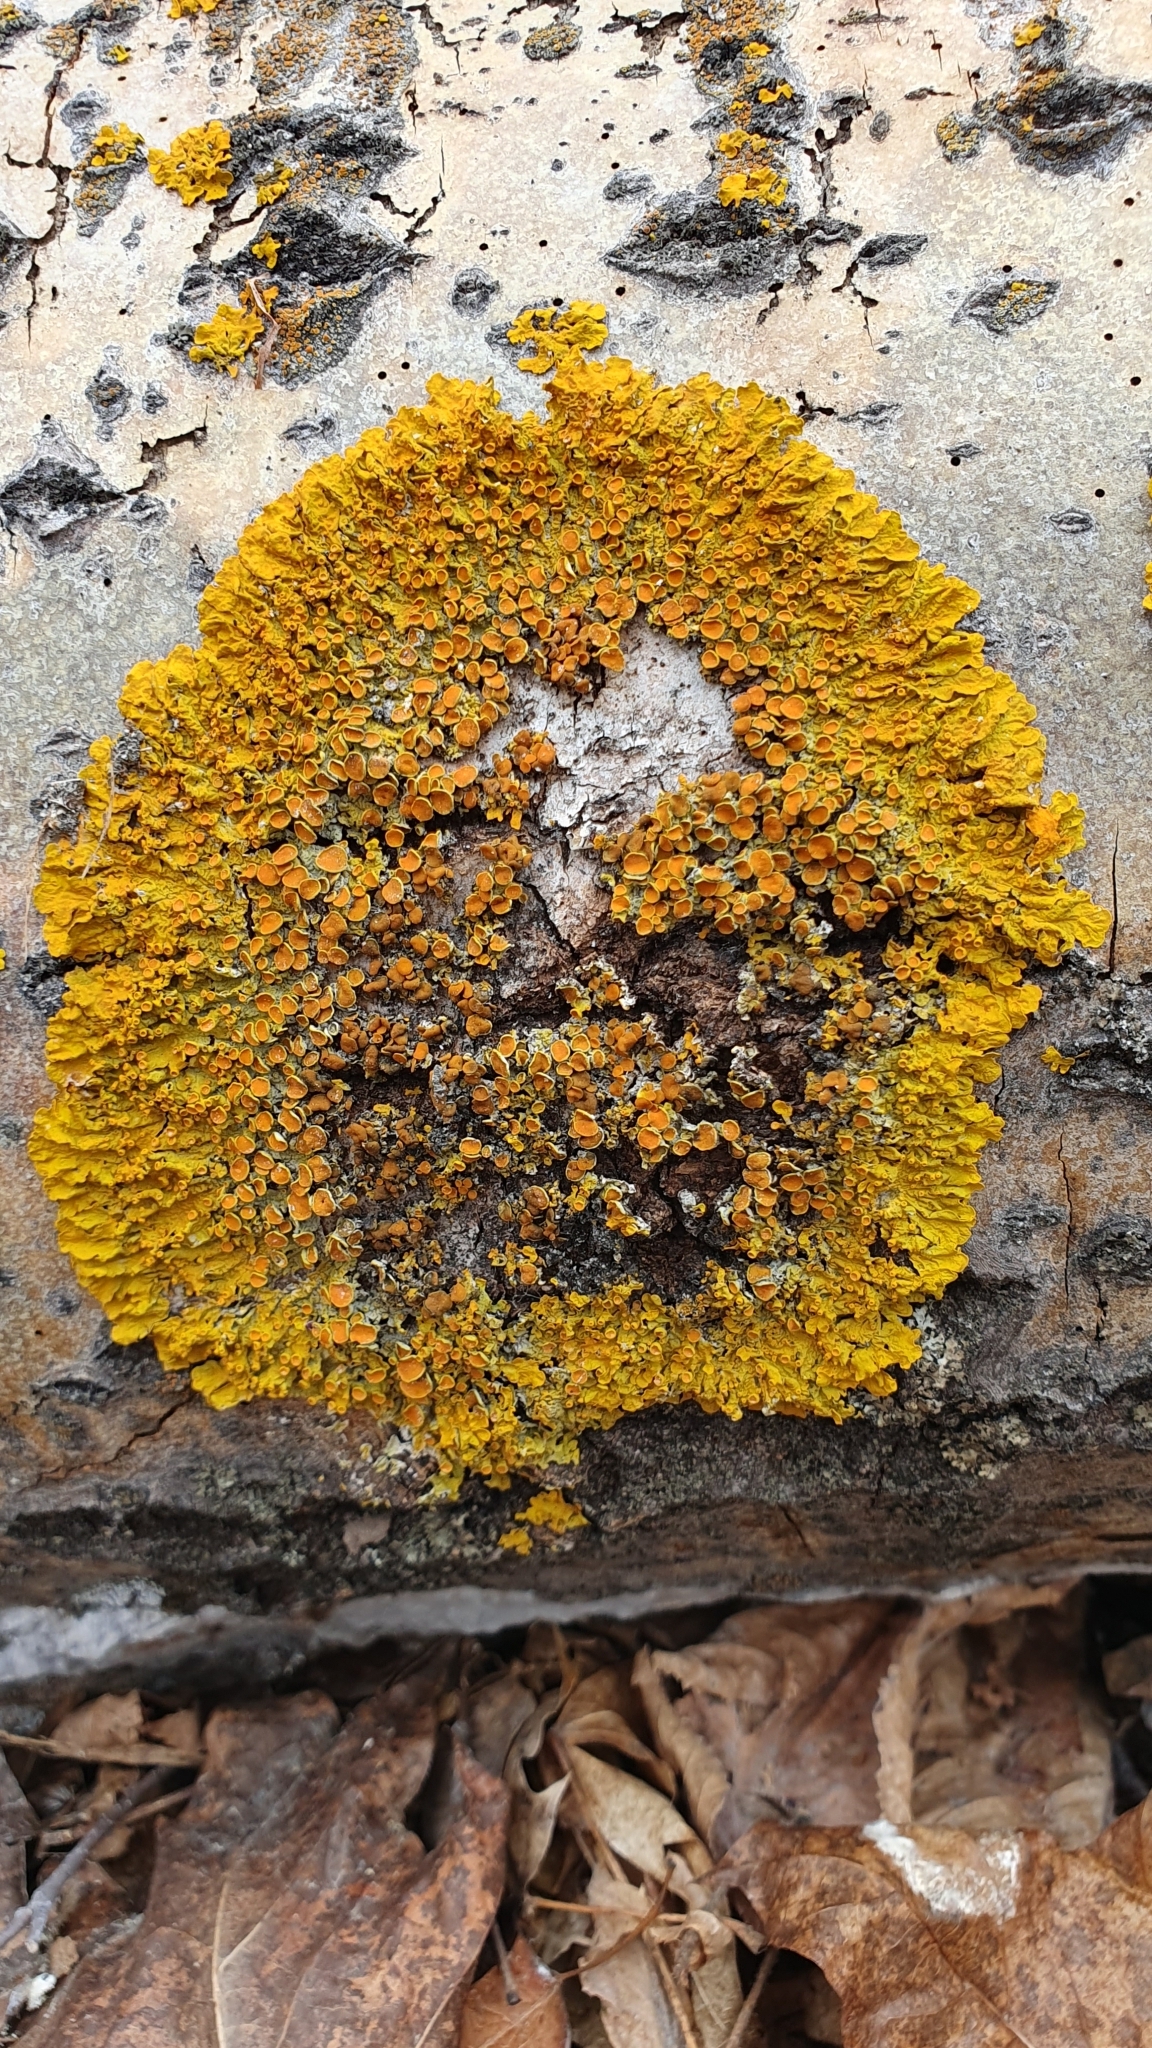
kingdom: Fungi
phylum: Ascomycota
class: Lecanoromycetes
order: Teloschistales
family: Teloschistaceae
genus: Xanthoria
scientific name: Xanthoria parietina
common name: Common orange lichen
